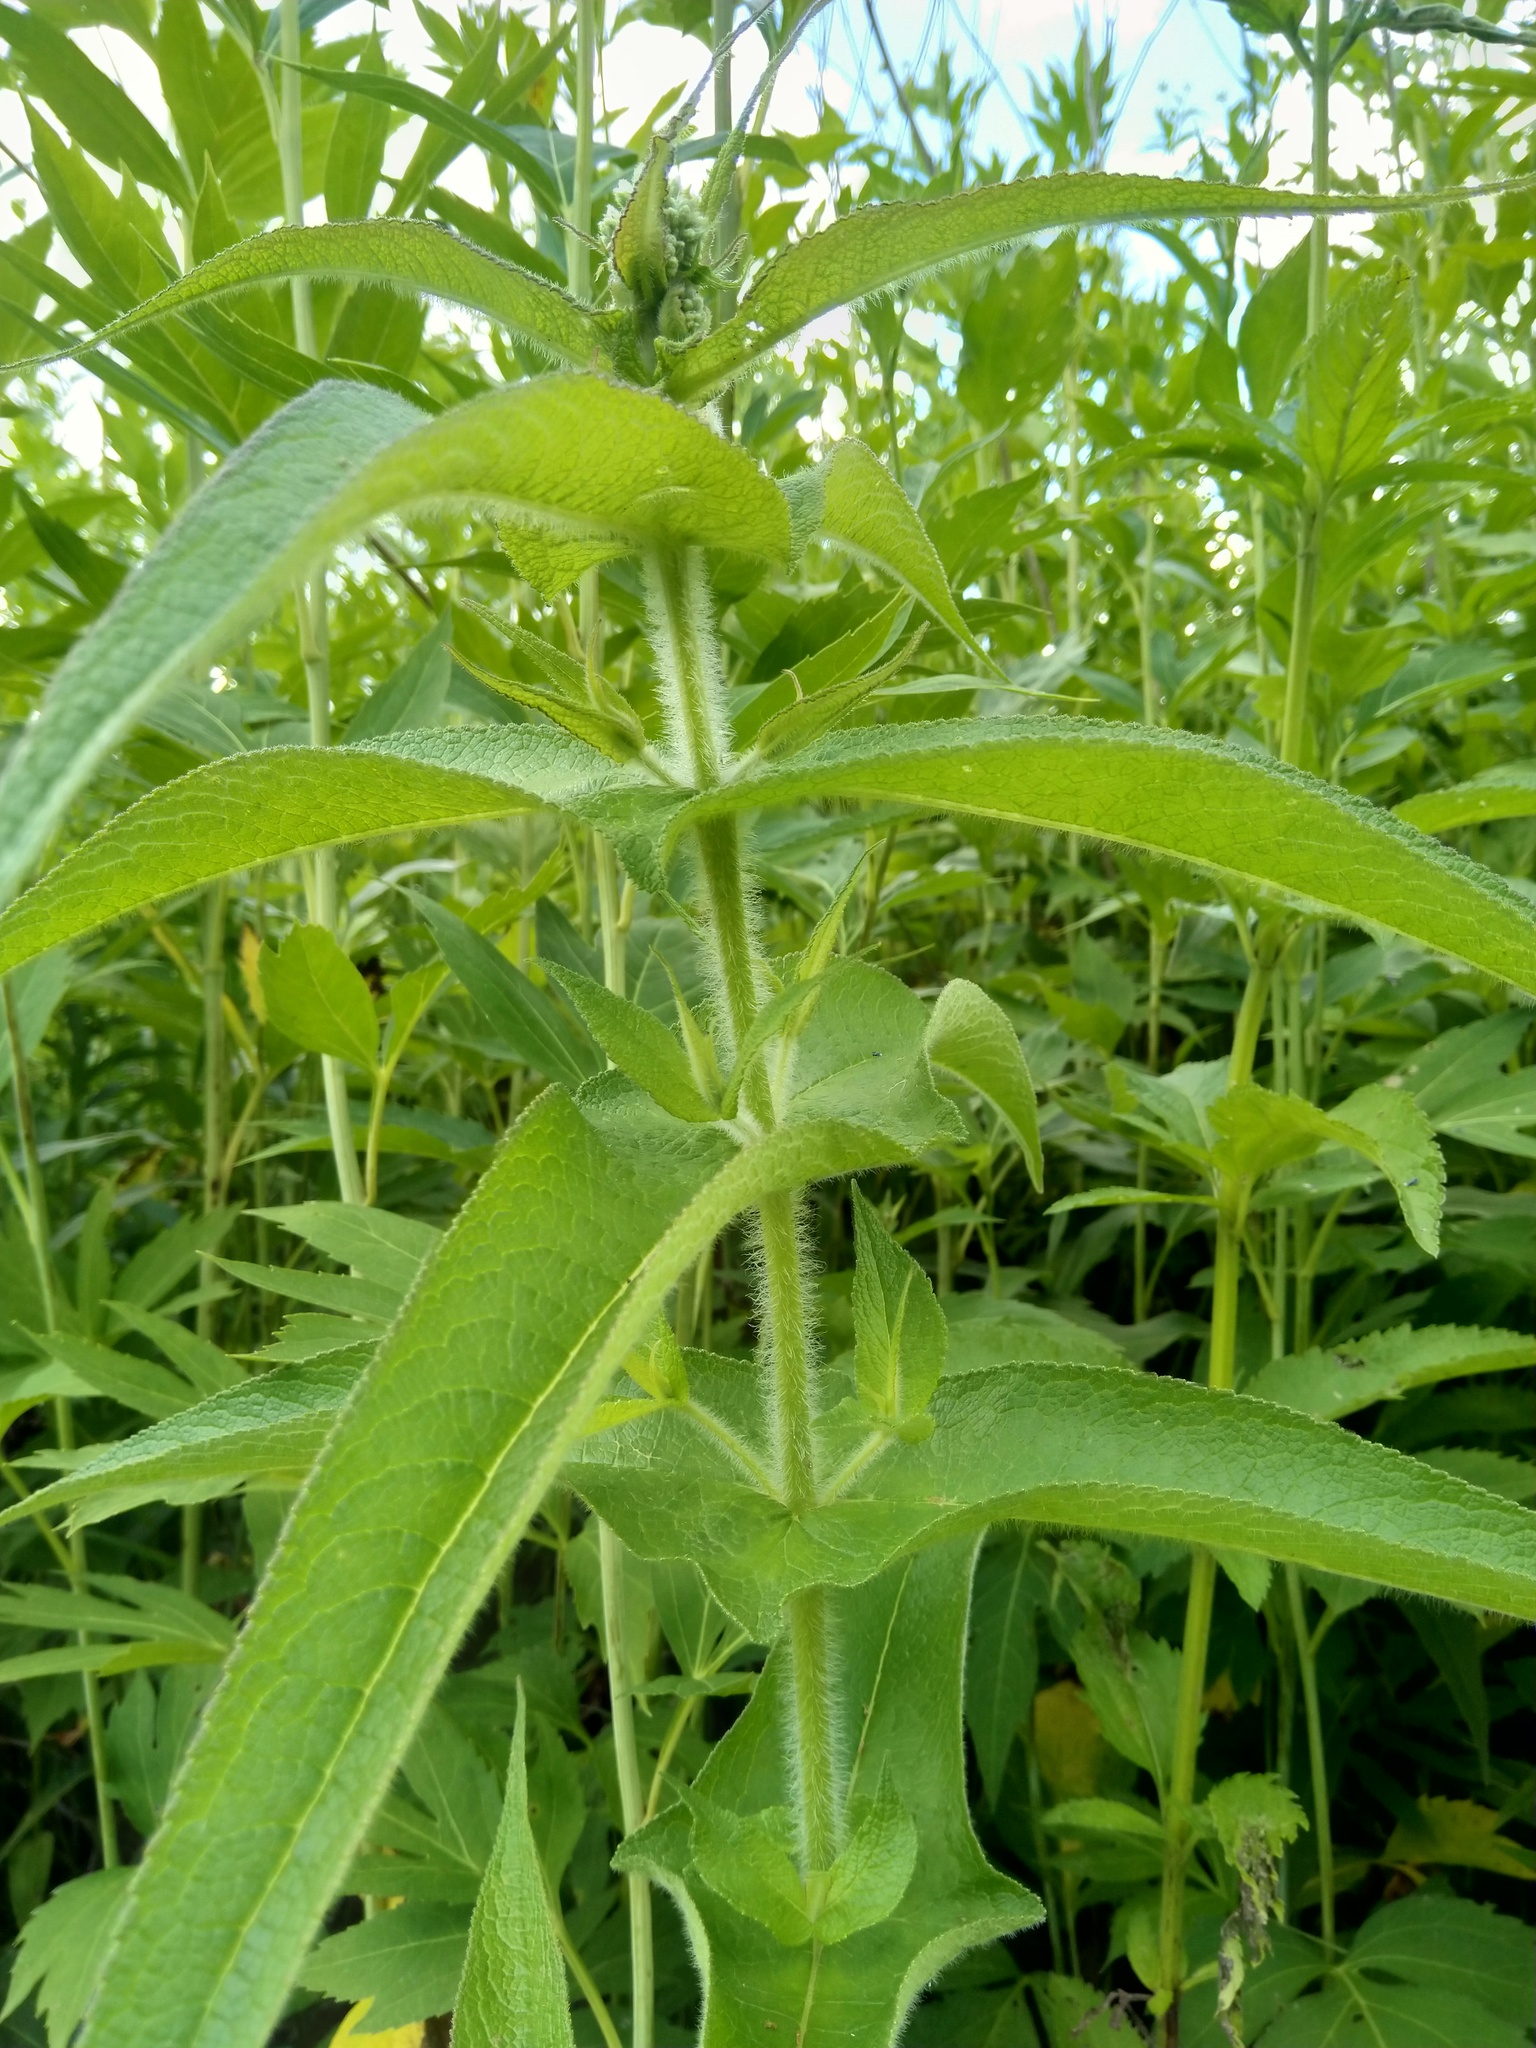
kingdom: Plantae
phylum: Tracheophyta
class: Magnoliopsida
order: Asterales
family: Asteraceae
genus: Eupatorium
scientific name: Eupatorium perfoliatum
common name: Boneset
